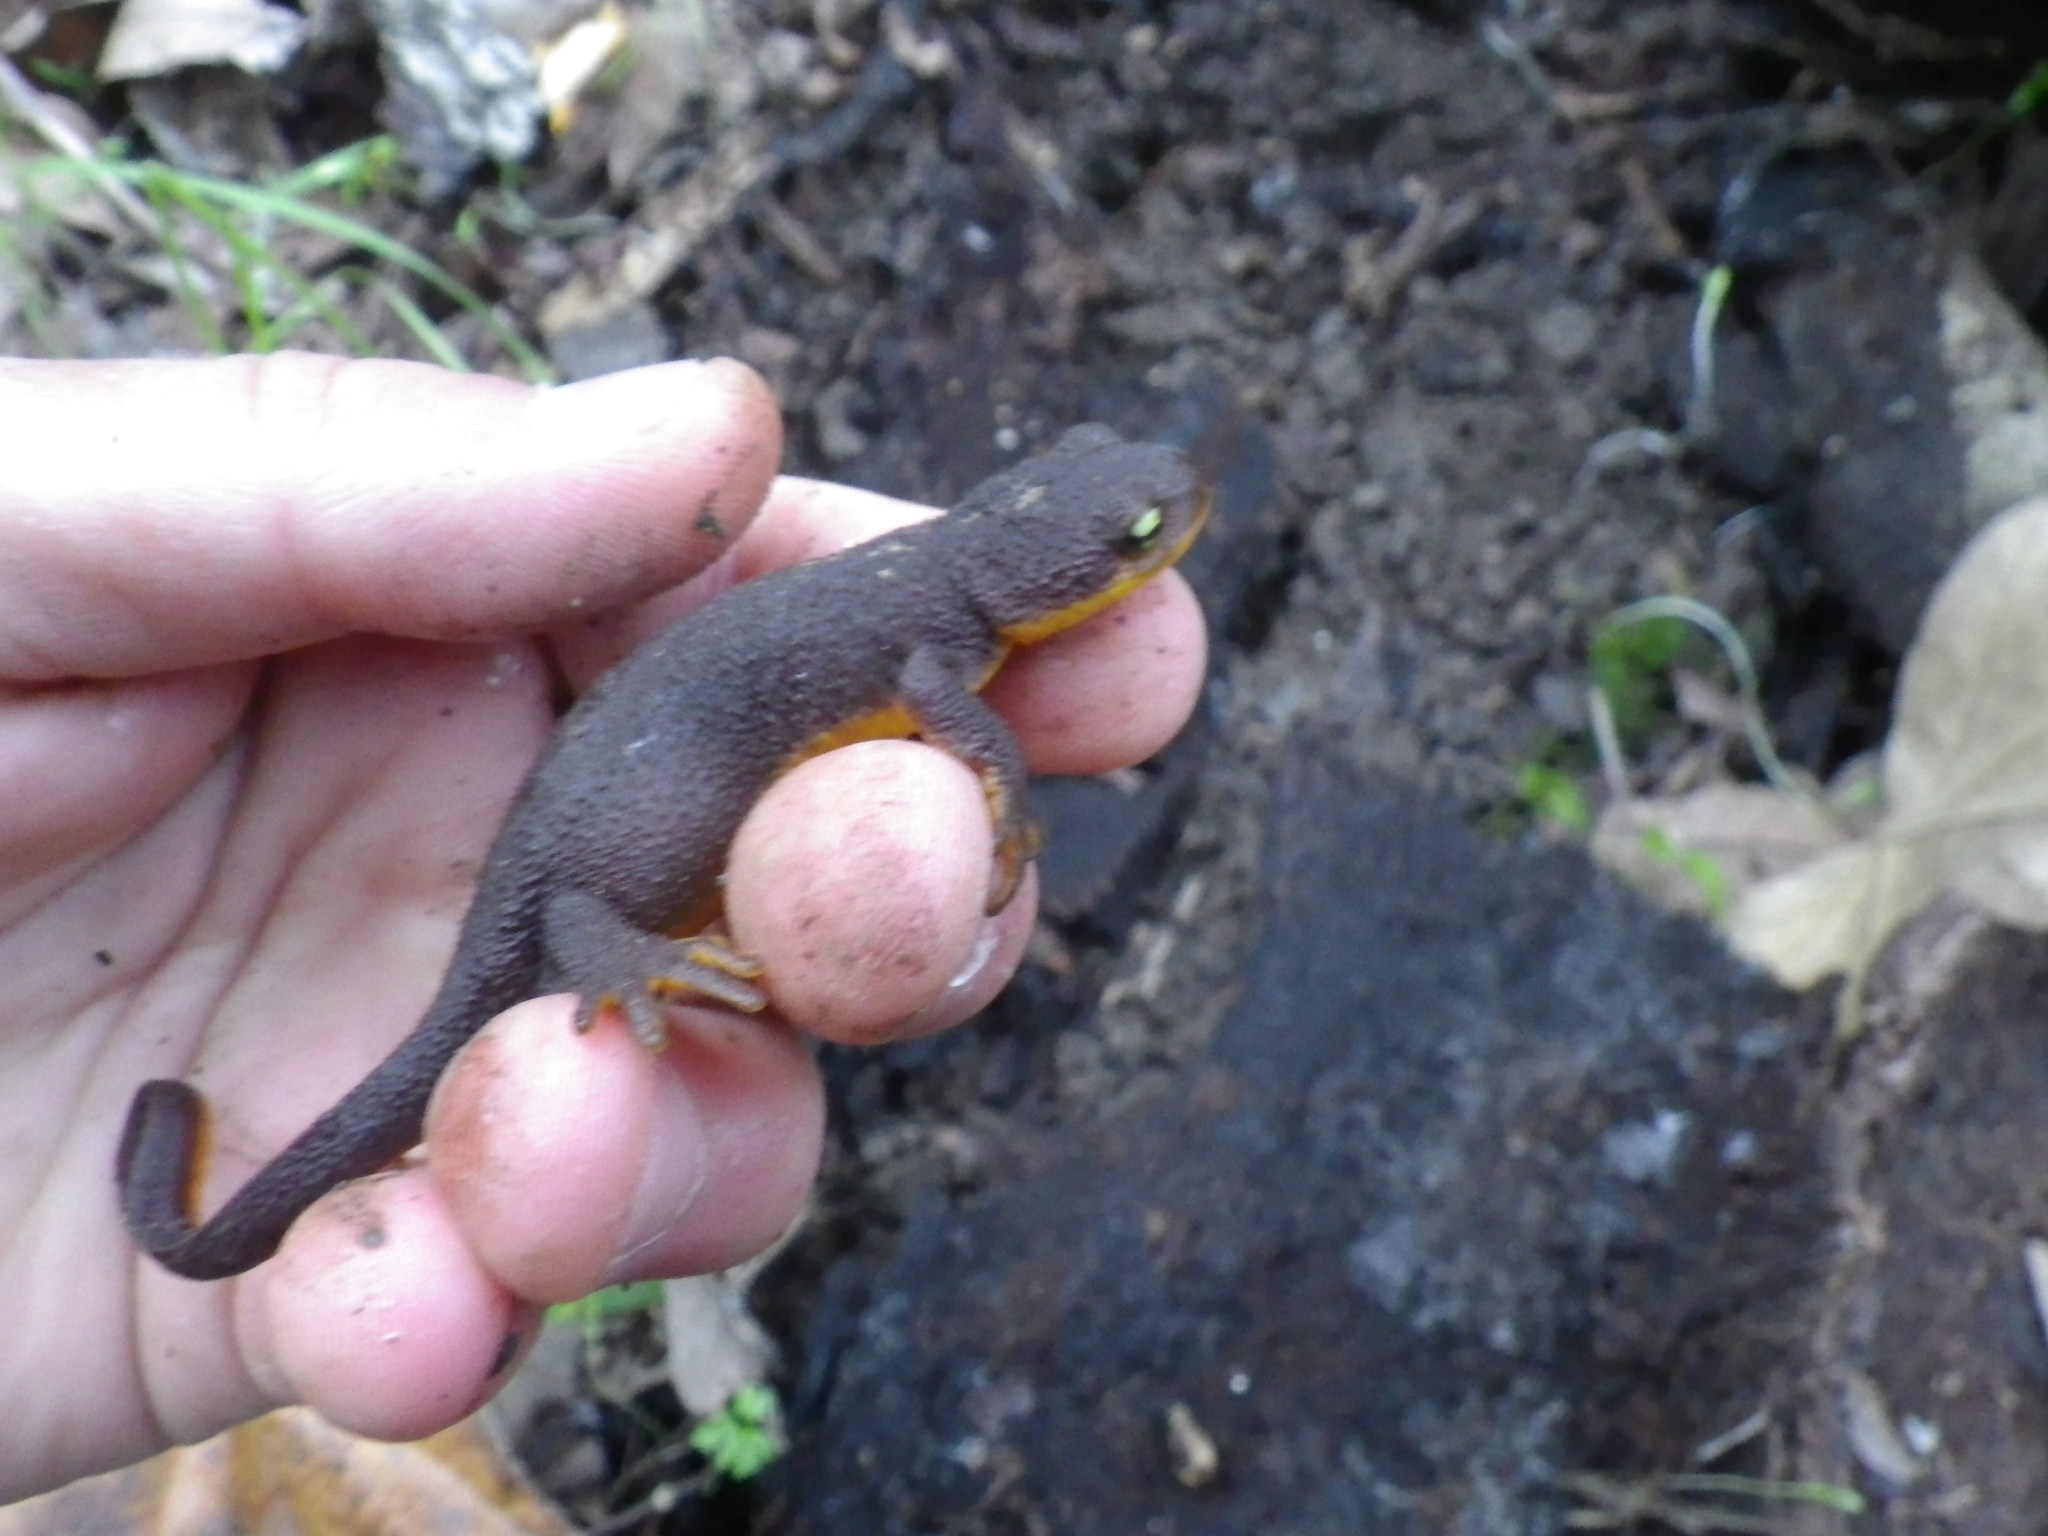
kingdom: Animalia
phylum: Chordata
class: Amphibia
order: Caudata
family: Salamandridae
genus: Taricha
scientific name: Taricha torosa
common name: California newt
